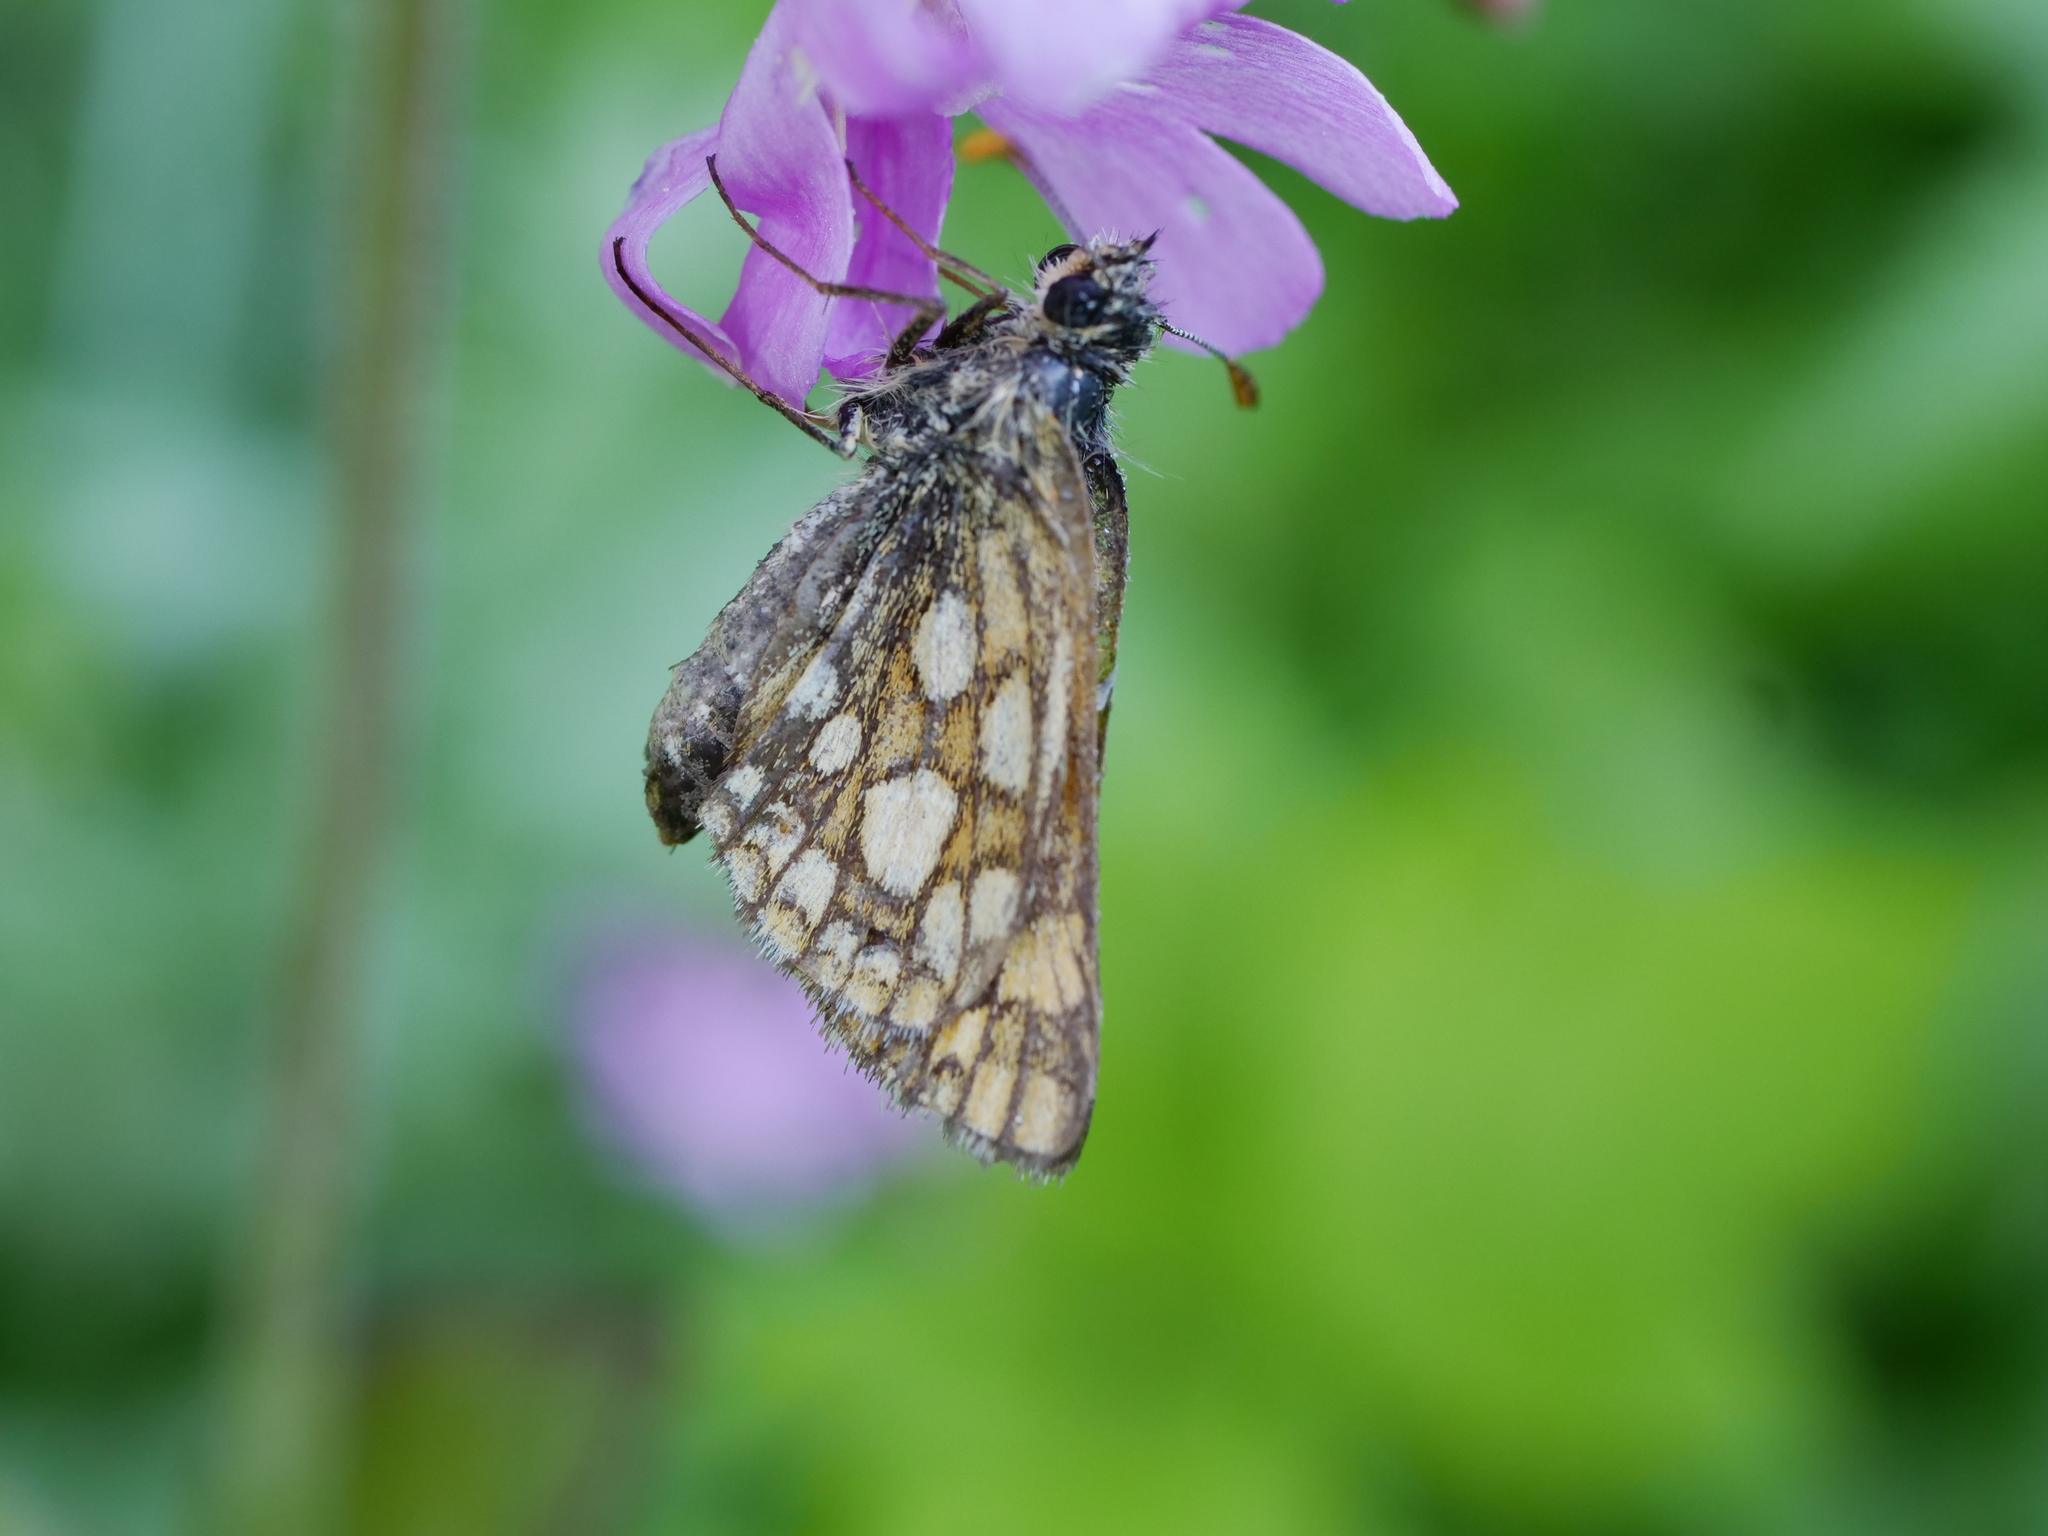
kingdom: Animalia
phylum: Arthropoda
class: Insecta
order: Lepidoptera
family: Hesperiidae
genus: Carterocephalus
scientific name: Carterocephalus palaemon
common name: Chequered skipper
